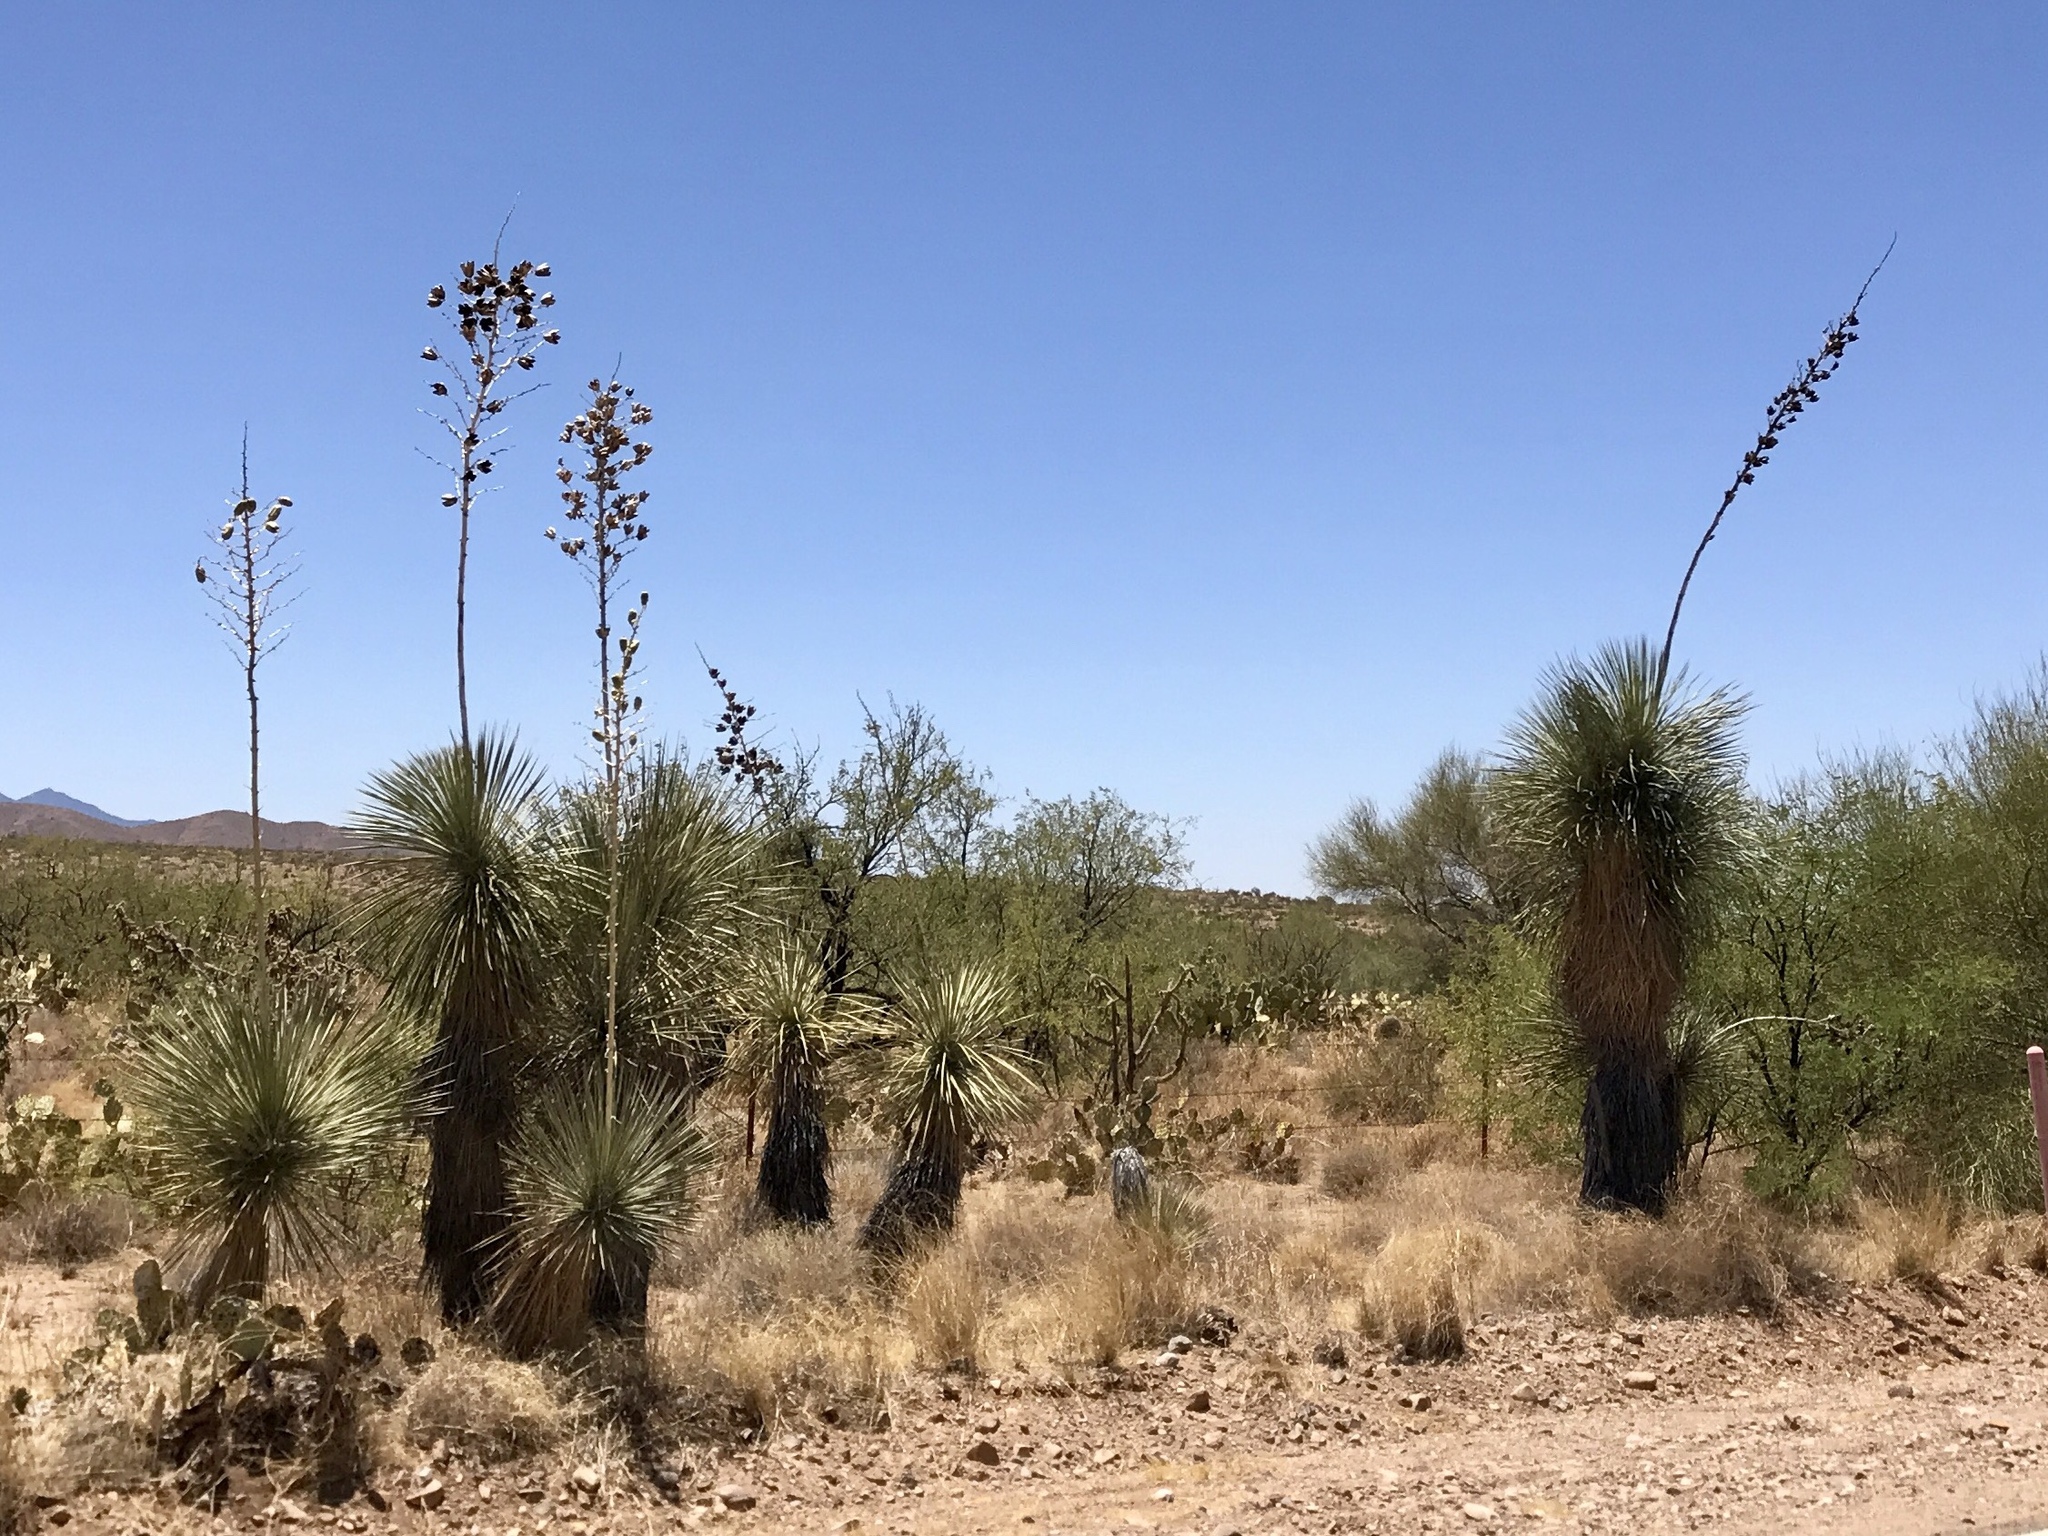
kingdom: Plantae
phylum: Tracheophyta
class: Liliopsida
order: Asparagales
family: Asparagaceae
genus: Yucca
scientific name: Yucca elata
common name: Palmella
